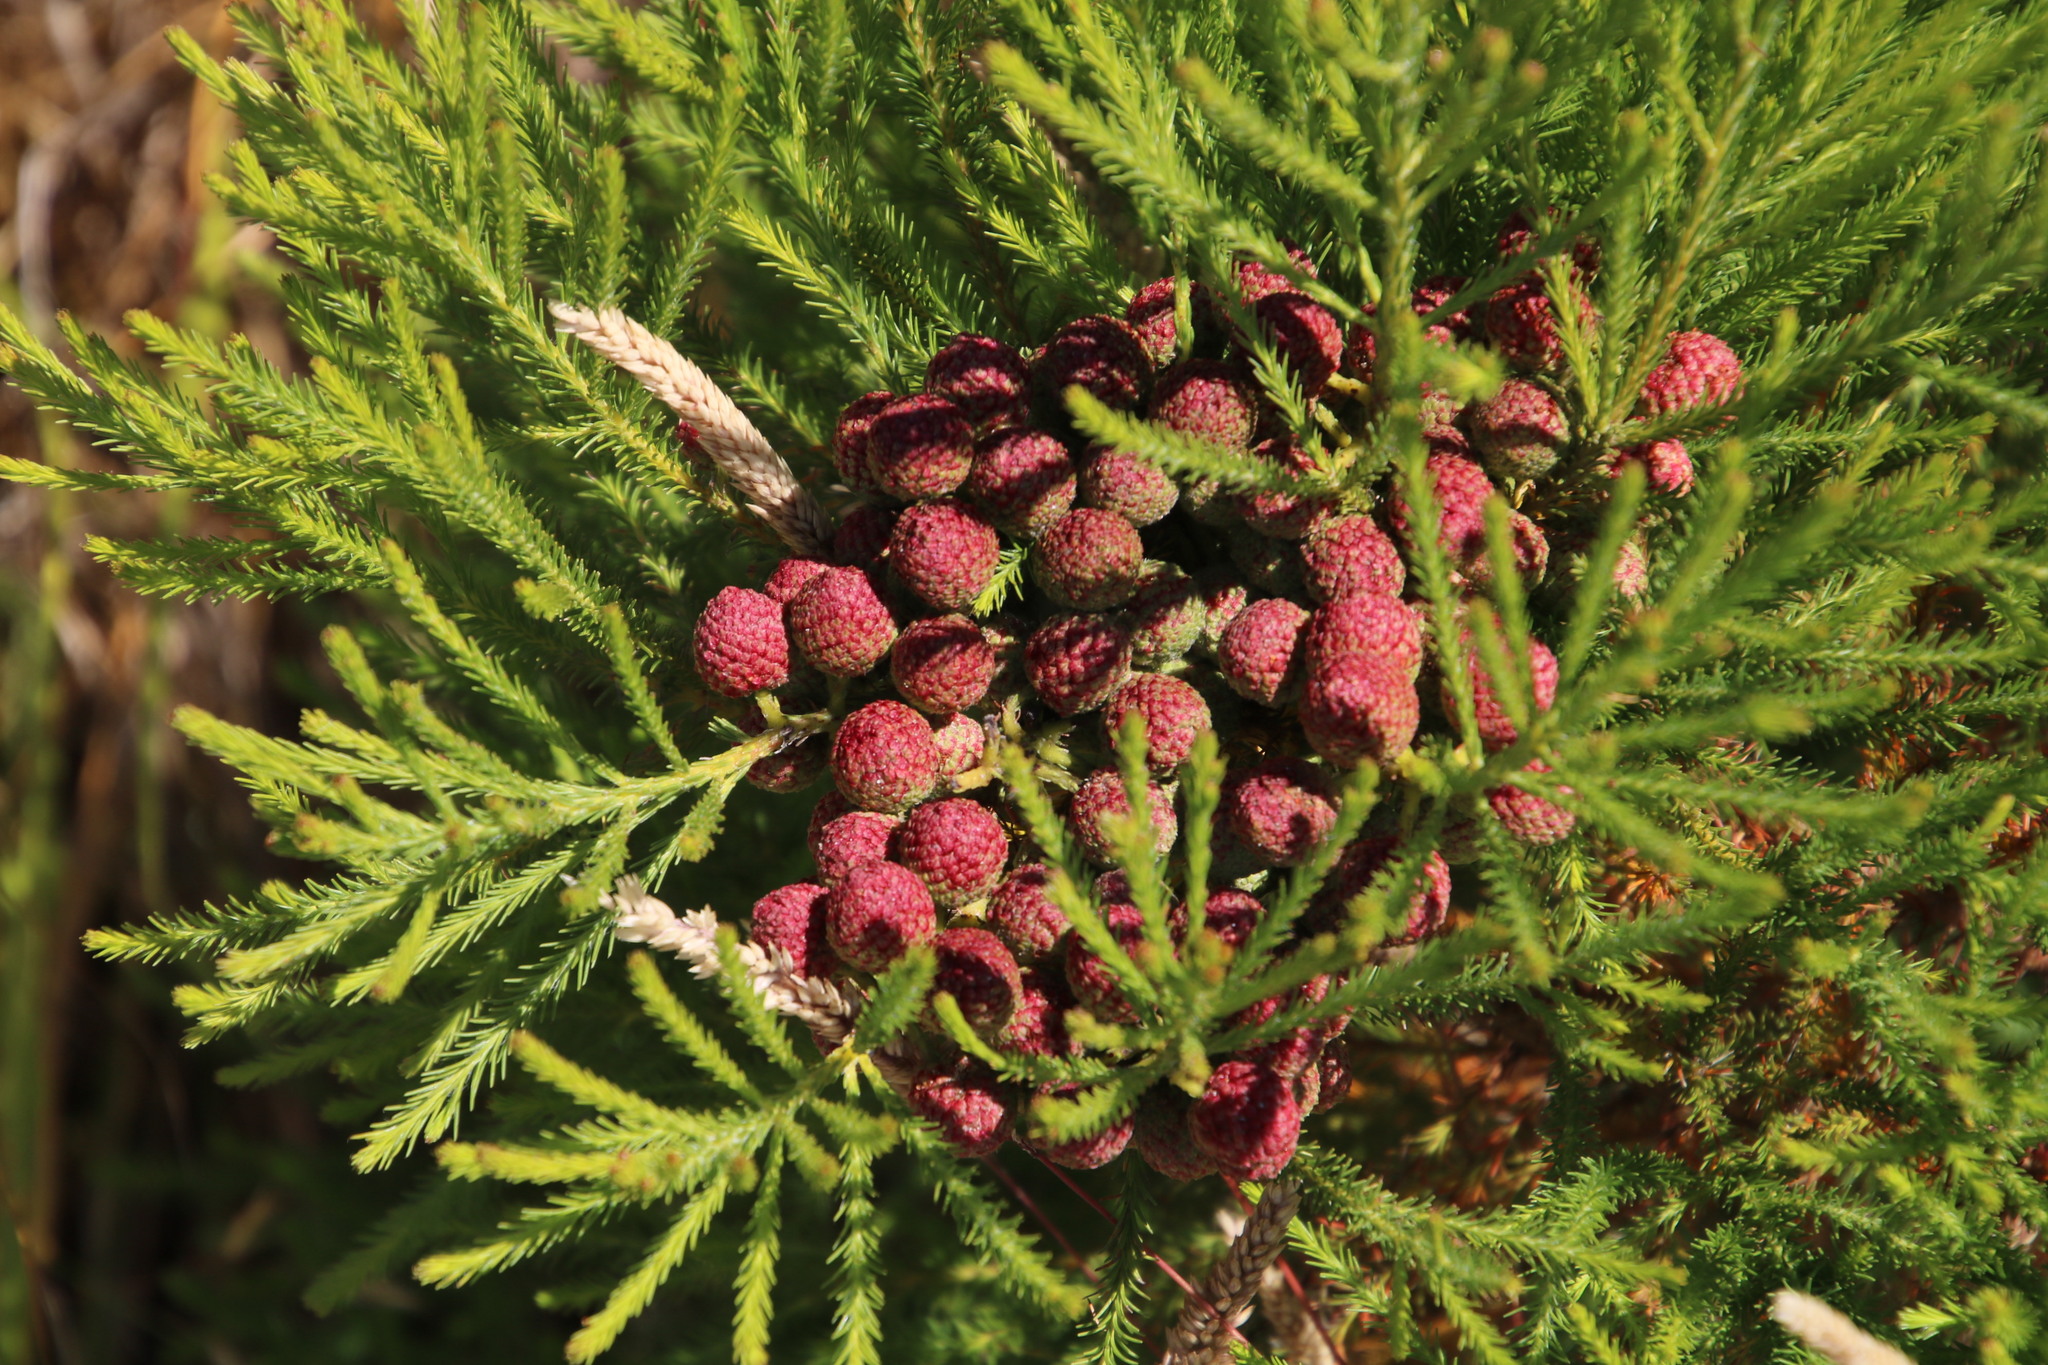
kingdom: Plantae
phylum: Tracheophyta
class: Magnoliopsida
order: Bruniales
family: Bruniaceae
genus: Berzelia
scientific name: Berzelia lanuginosa
